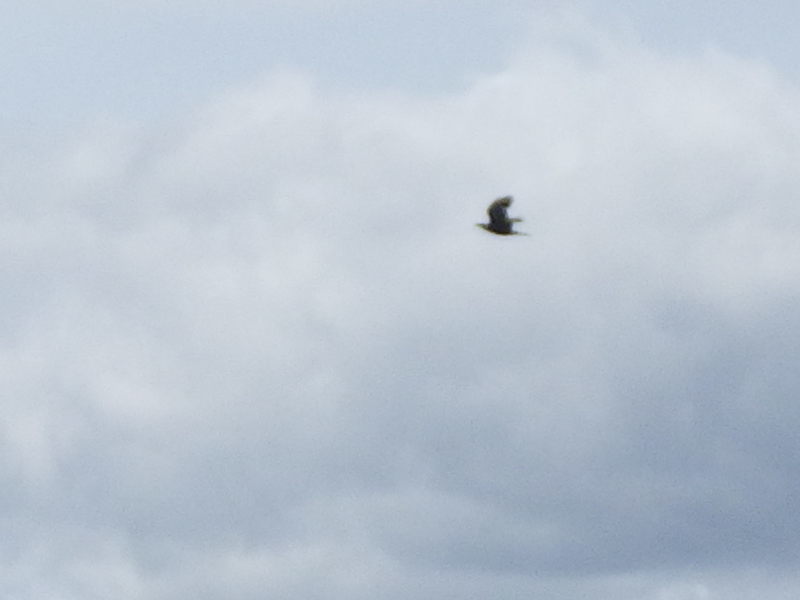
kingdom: Animalia
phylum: Chordata
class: Aves
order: Passeriformes
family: Corvidae
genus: Corvus
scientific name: Corvus corax
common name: Common raven
